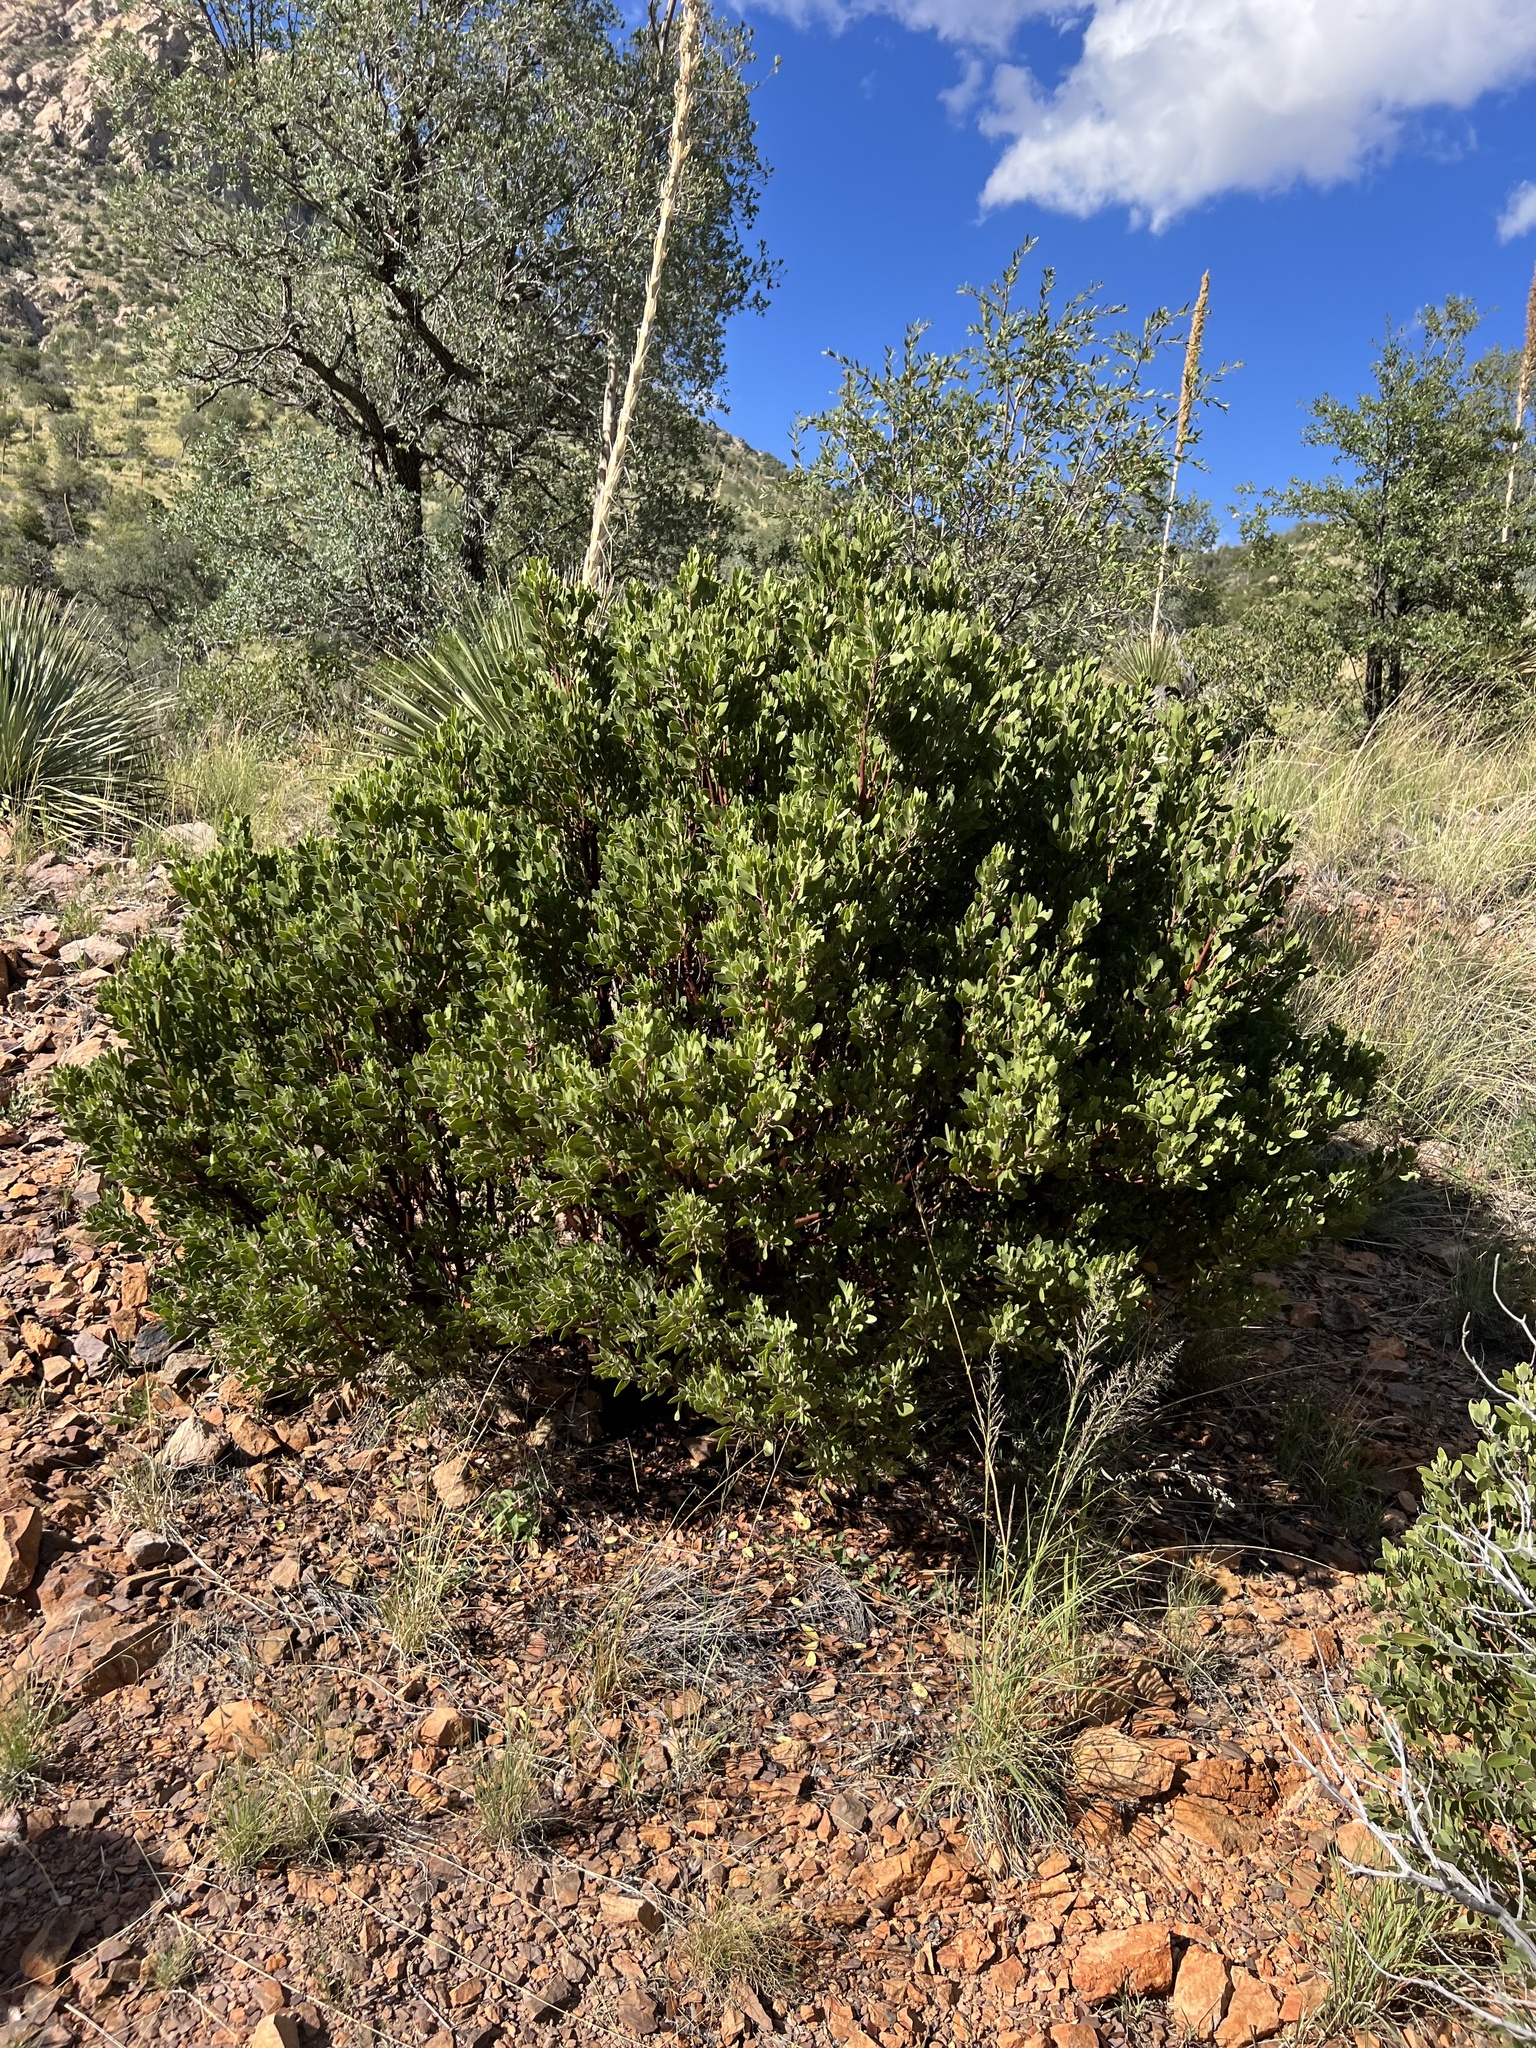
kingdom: Plantae
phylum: Tracheophyta
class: Magnoliopsida
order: Ericales
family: Ericaceae
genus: Arctostaphylos
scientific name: Arctostaphylos pungens
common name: Mexican manzanita
